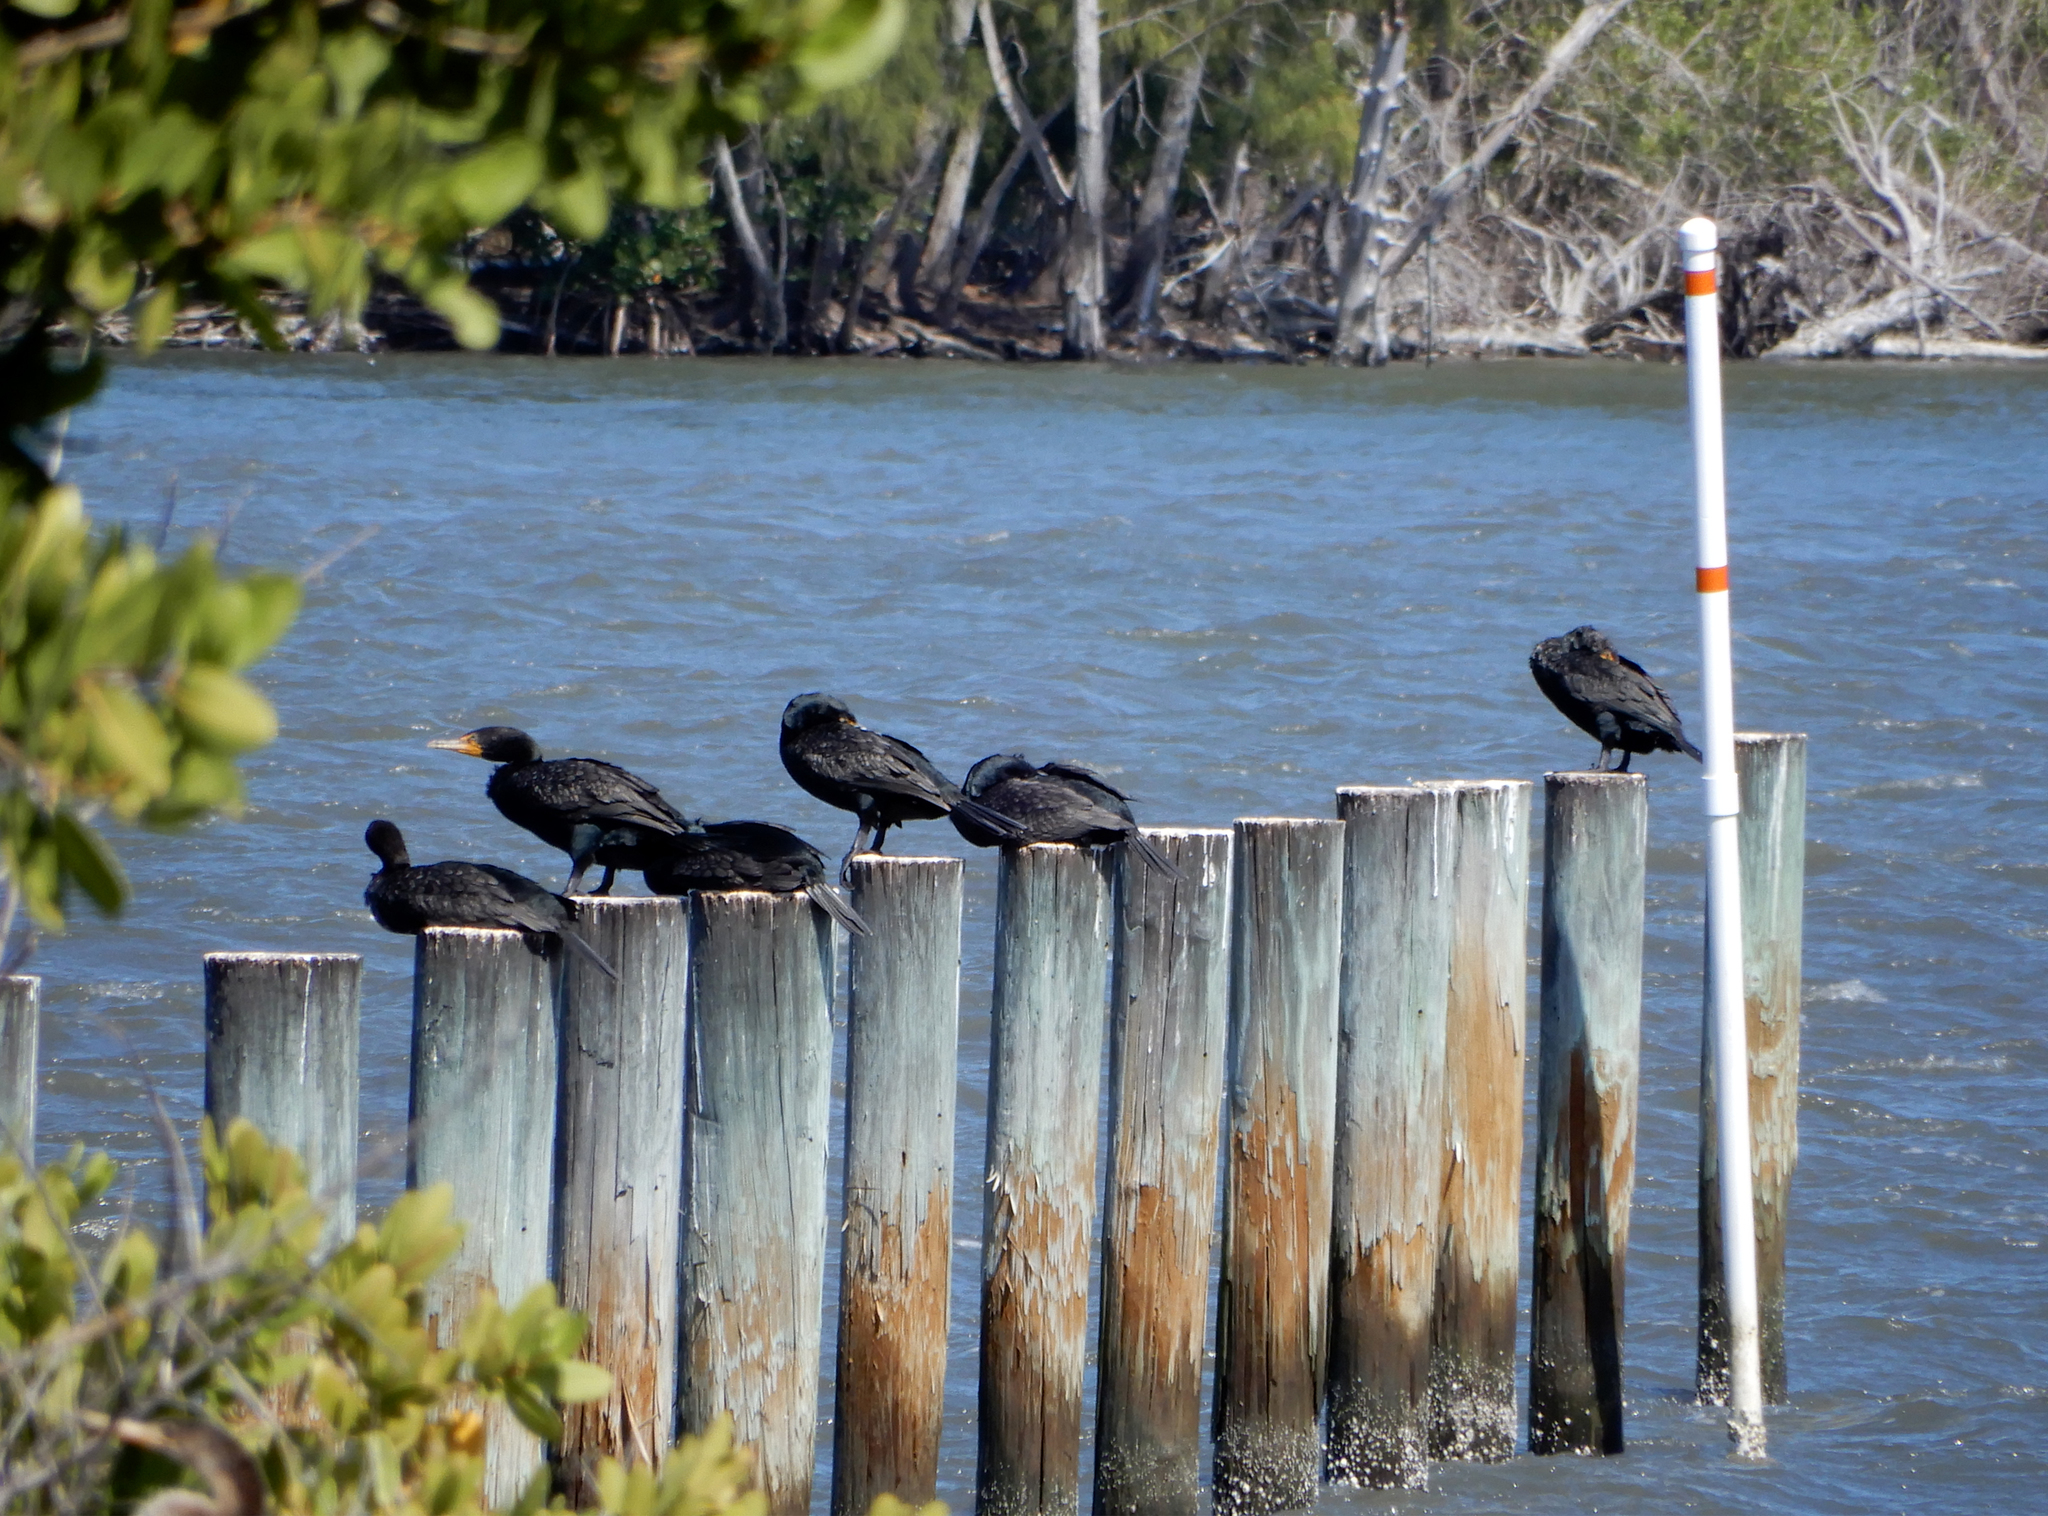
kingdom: Animalia
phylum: Chordata
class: Aves
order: Suliformes
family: Phalacrocoracidae
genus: Phalacrocorax
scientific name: Phalacrocorax auritus
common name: Double-crested cormorant
